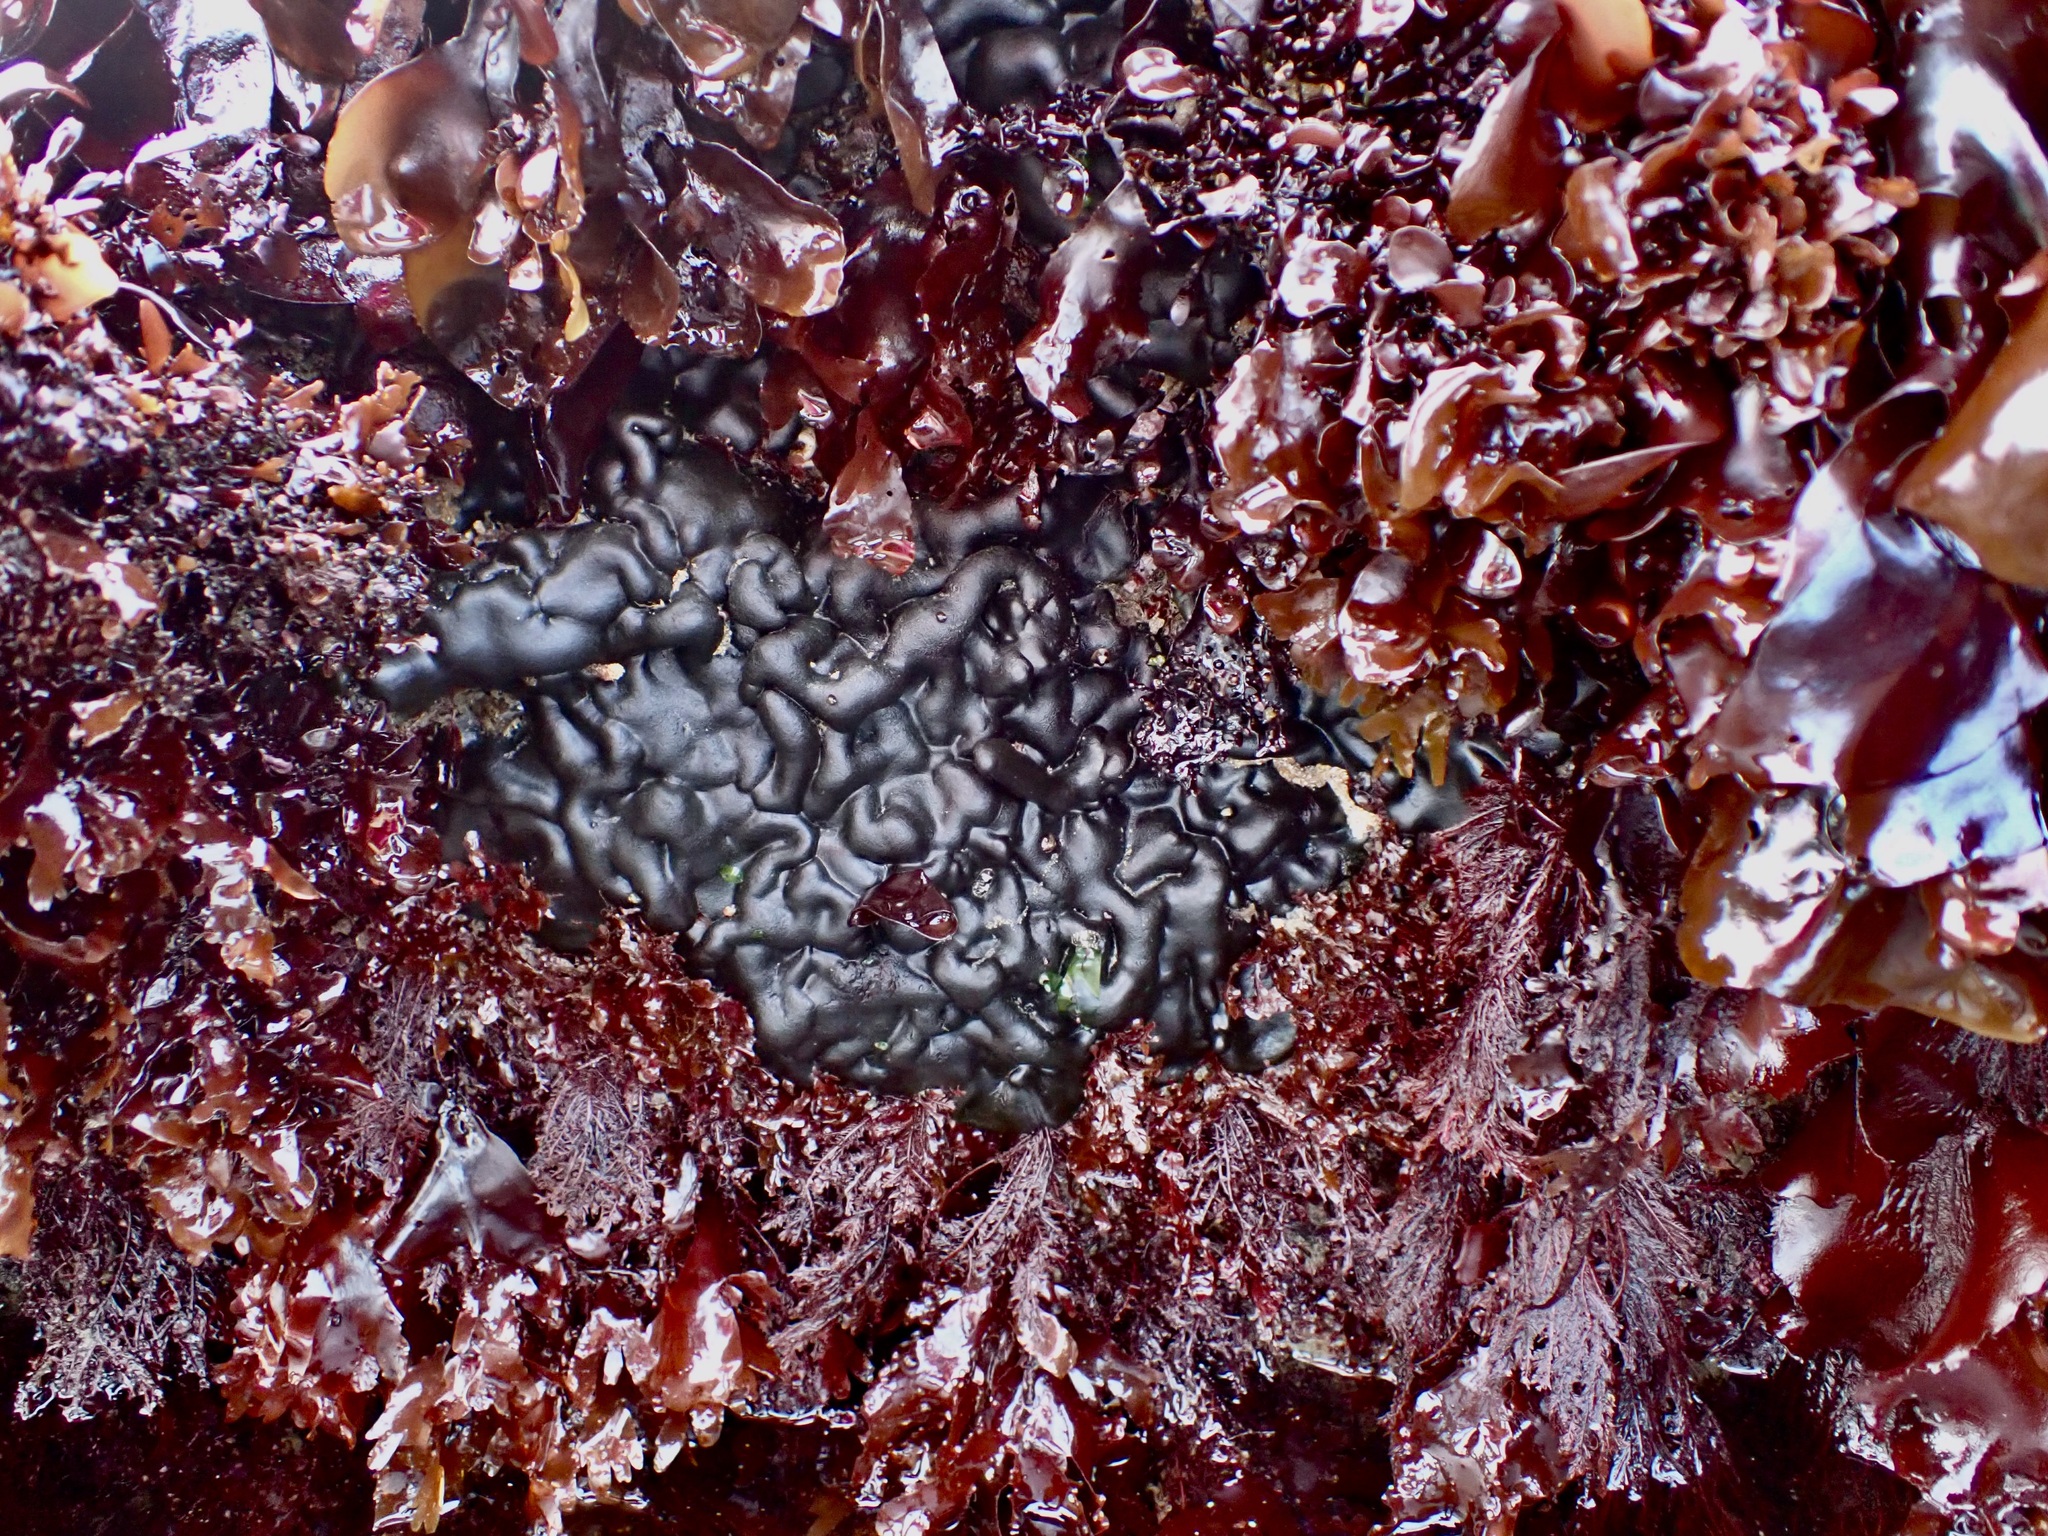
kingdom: Plantae
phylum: Chlorophyta
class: Ulvophyceae
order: Bryopsidales
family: Codiaceae
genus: Codium
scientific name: Codium setchellii
